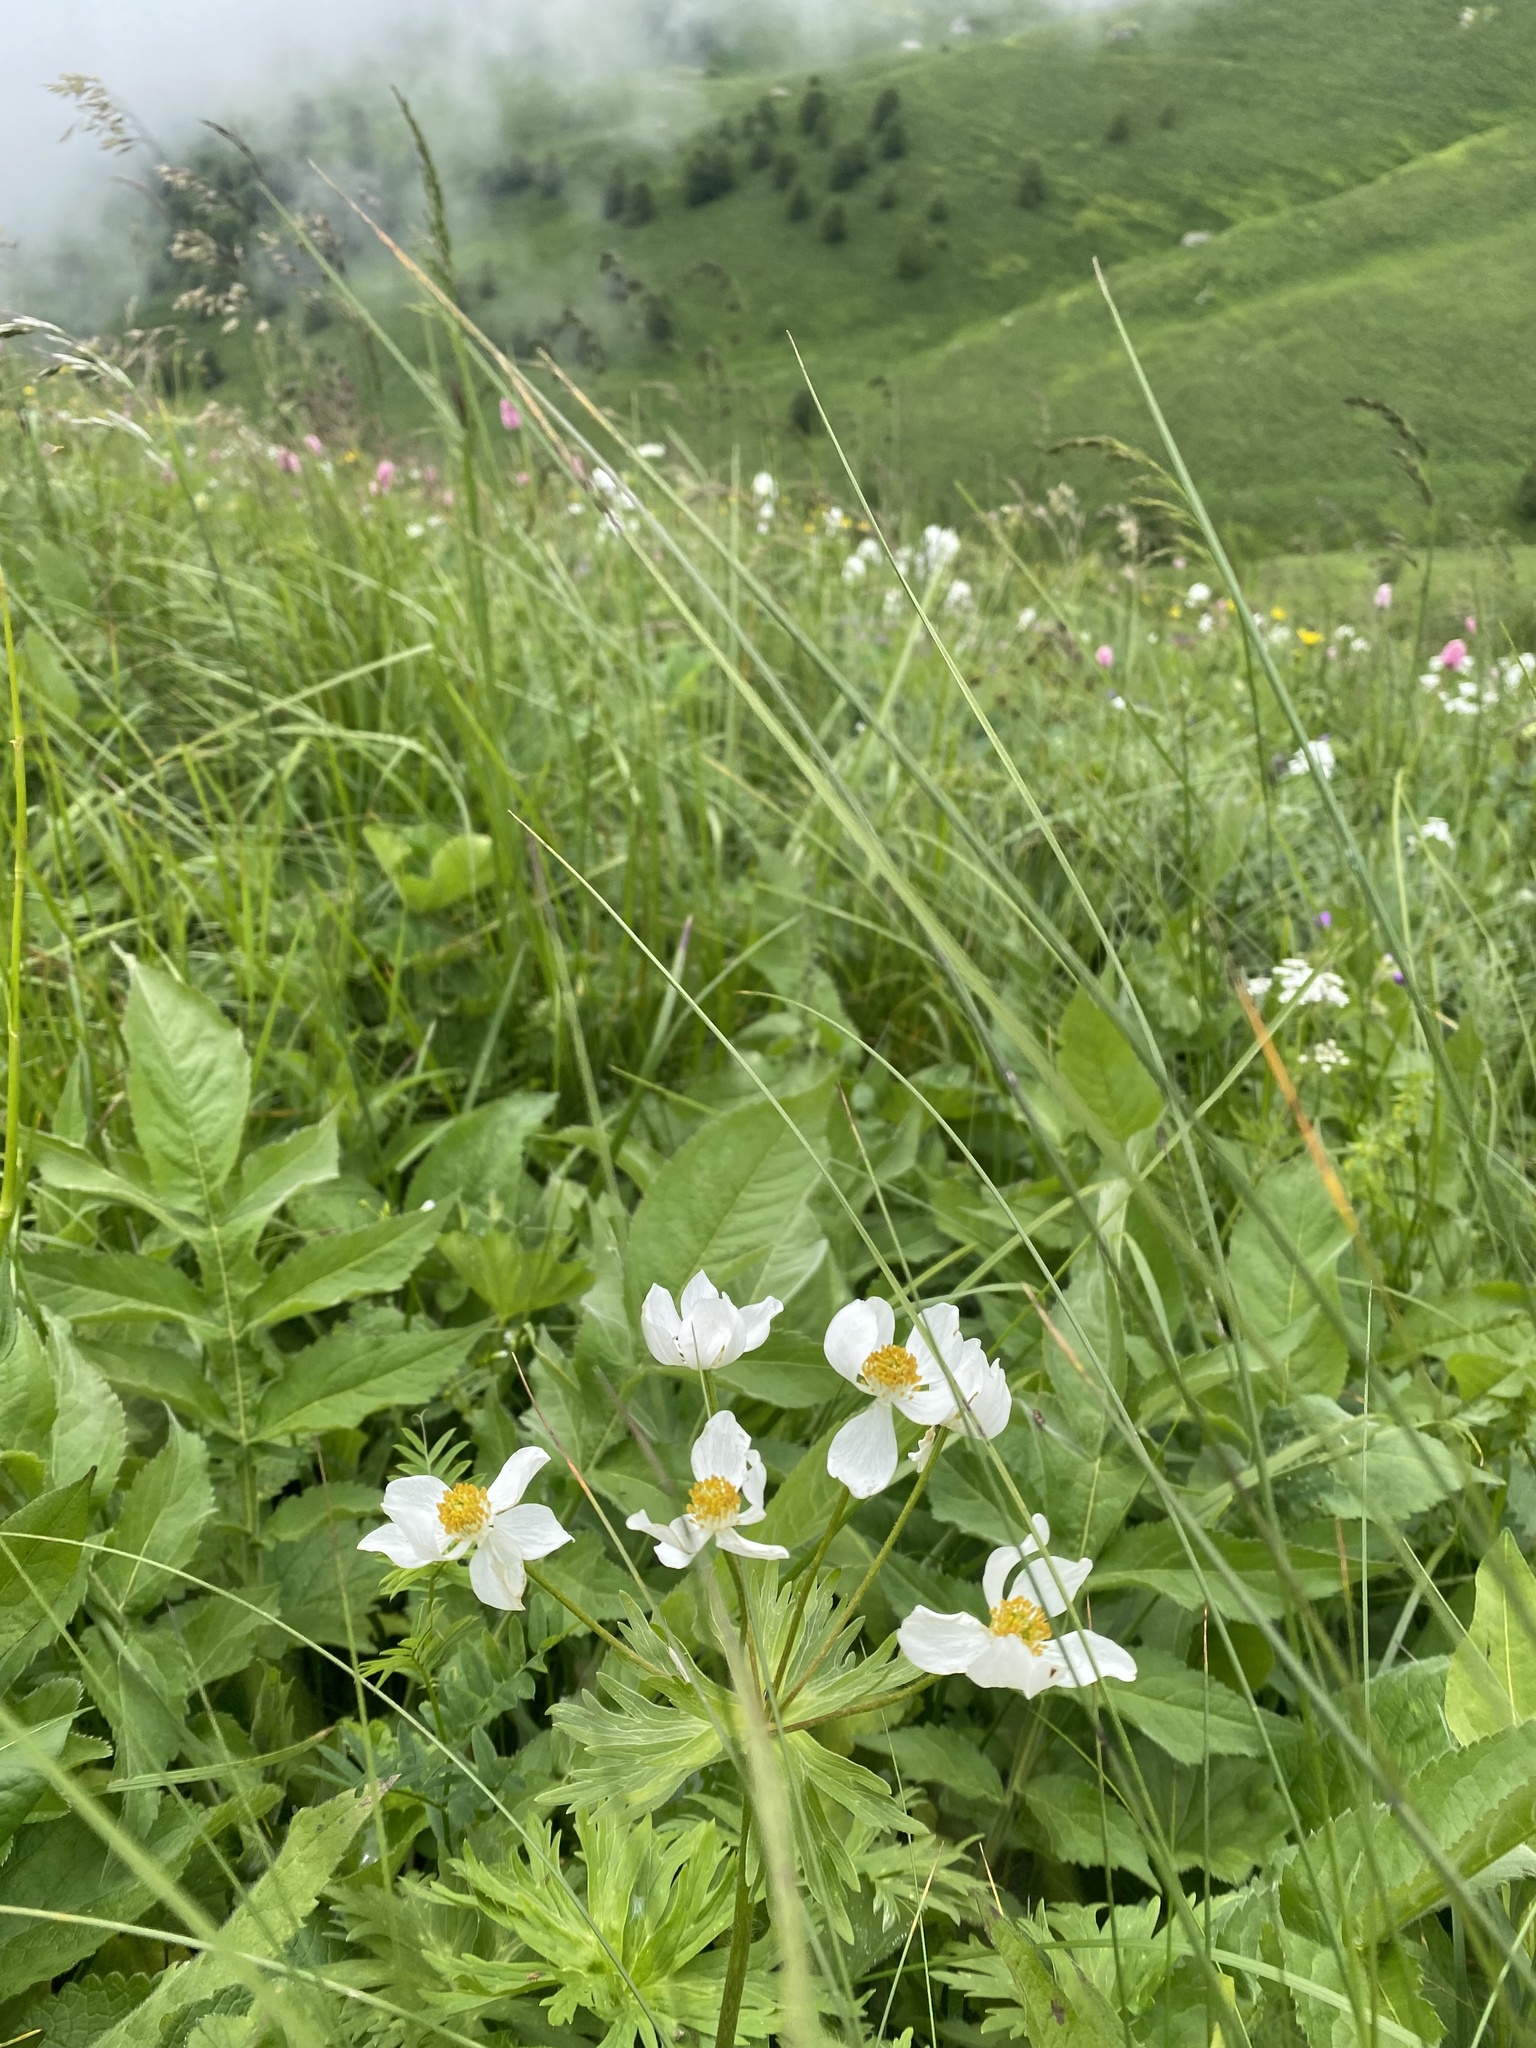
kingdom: Plantae
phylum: Tracheophyta
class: Magnoliopsida
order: Ranunculales
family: Ranunculaceae
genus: Anemonastrum
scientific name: Anemonastrum narcissiflorum
